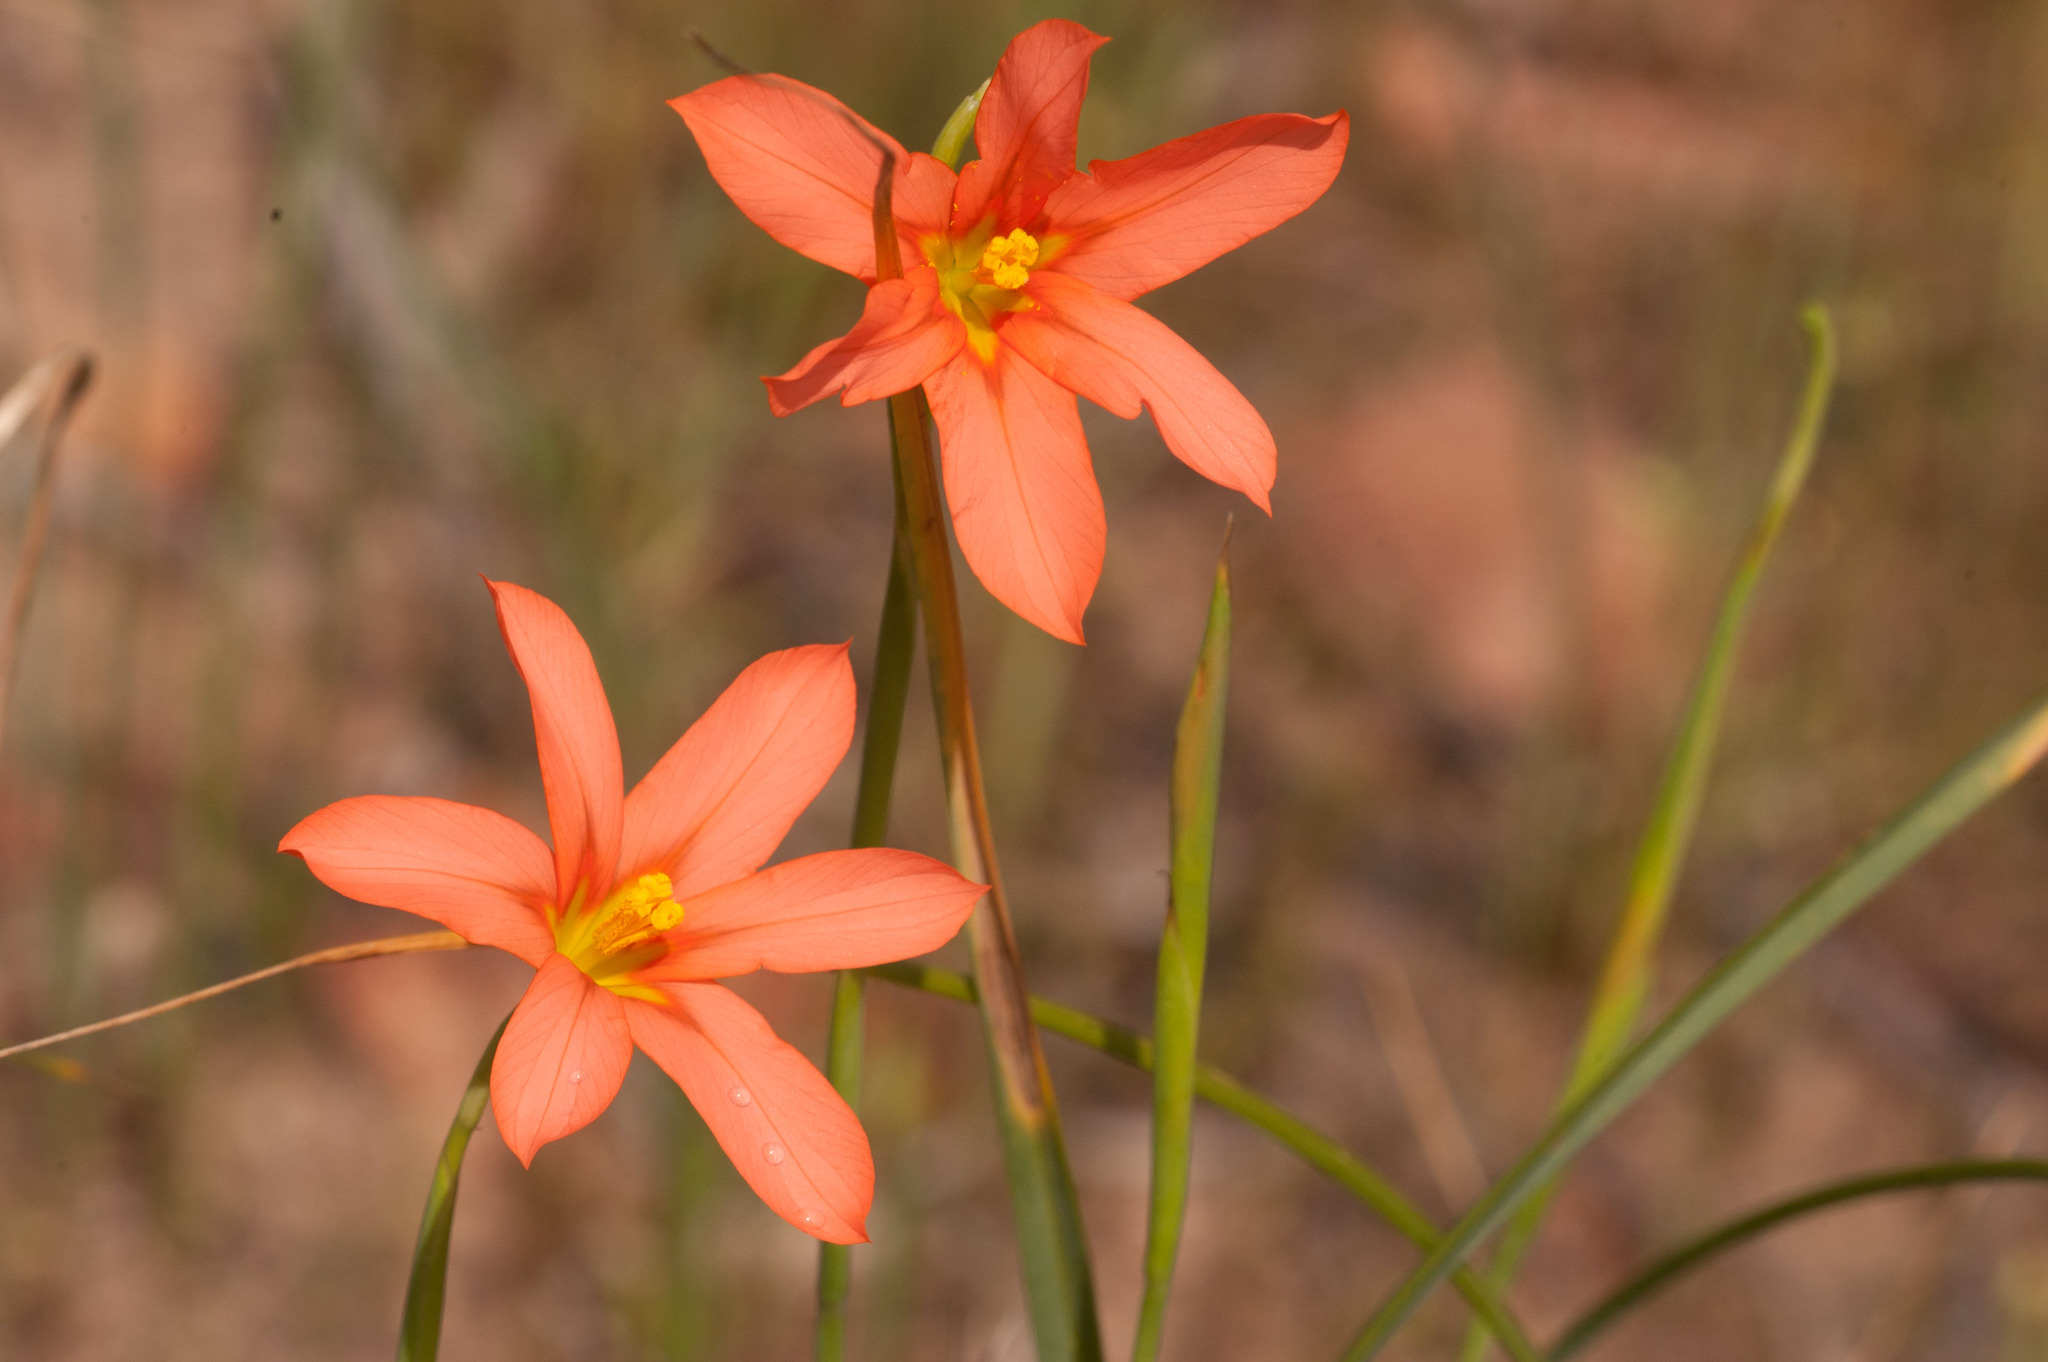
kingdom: Plantae
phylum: Tracheophyta
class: Liliopsida
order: Asparagales
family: Iridaceae
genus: Moraea
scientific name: Moraea flaccida
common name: One-leaf cape-tulip
